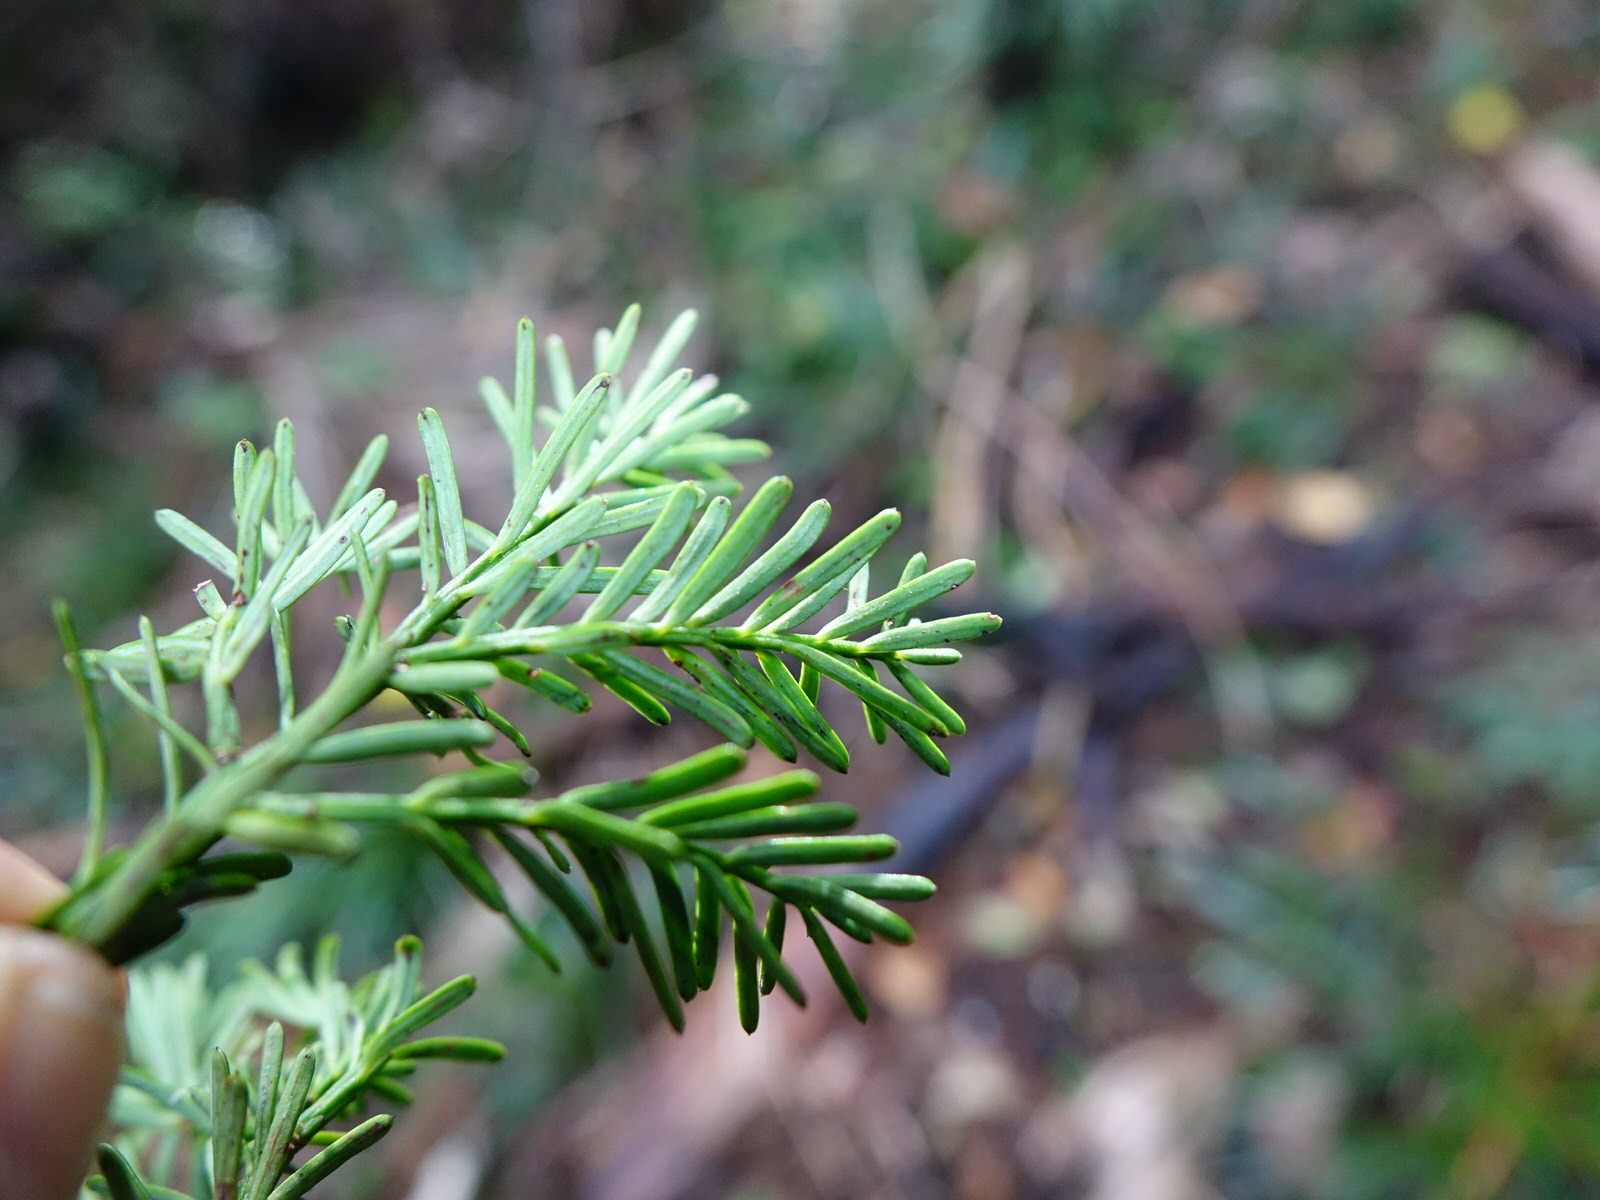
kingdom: Plantae
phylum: Tracheophyta
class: Pinopsida
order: Pinales
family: Podocarpaceae
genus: Prumnopitys
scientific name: Prumnopitys taxifolia
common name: Matai
